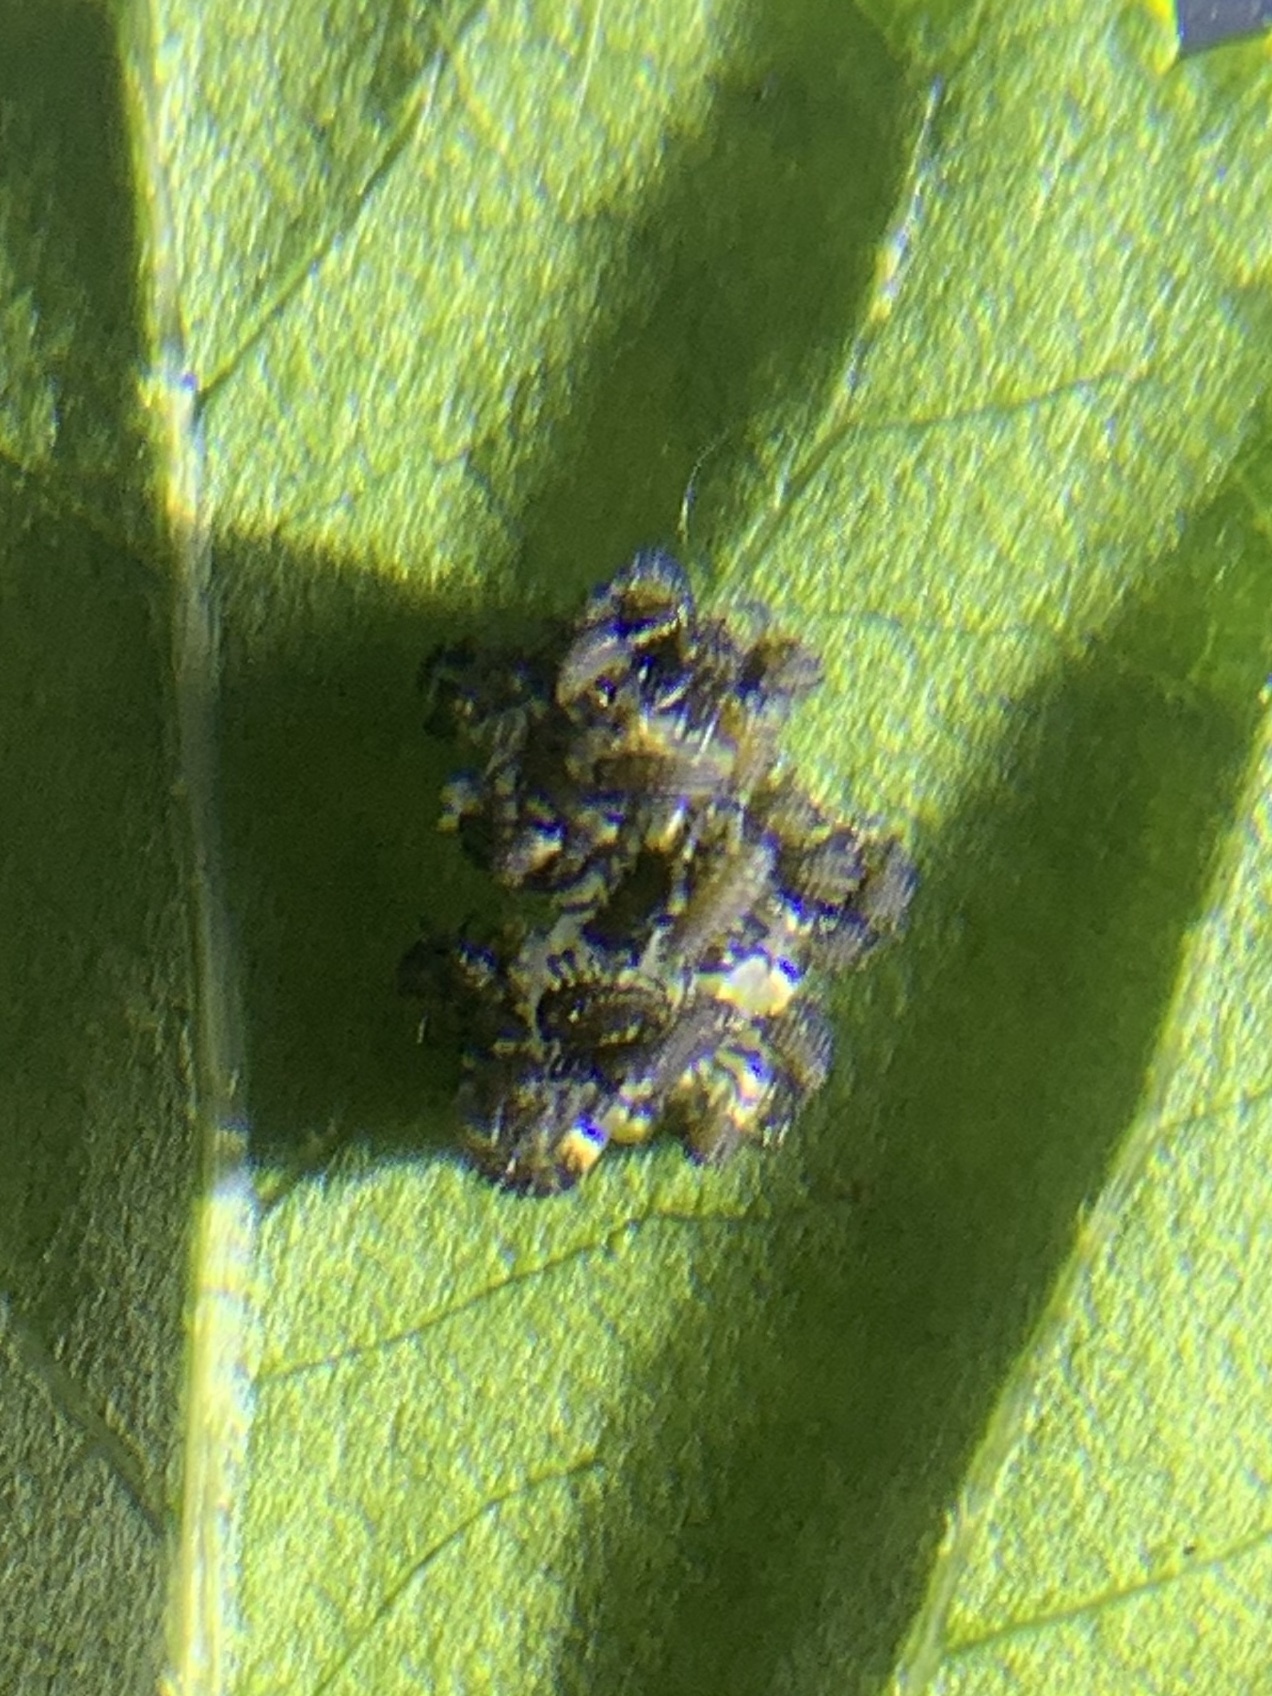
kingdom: Animalia
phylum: Arthropoda
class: Insecta
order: Coleoptera
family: Coccinellidae
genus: Harmonia
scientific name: Harmonia axyridis
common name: Harlequin ladybird
